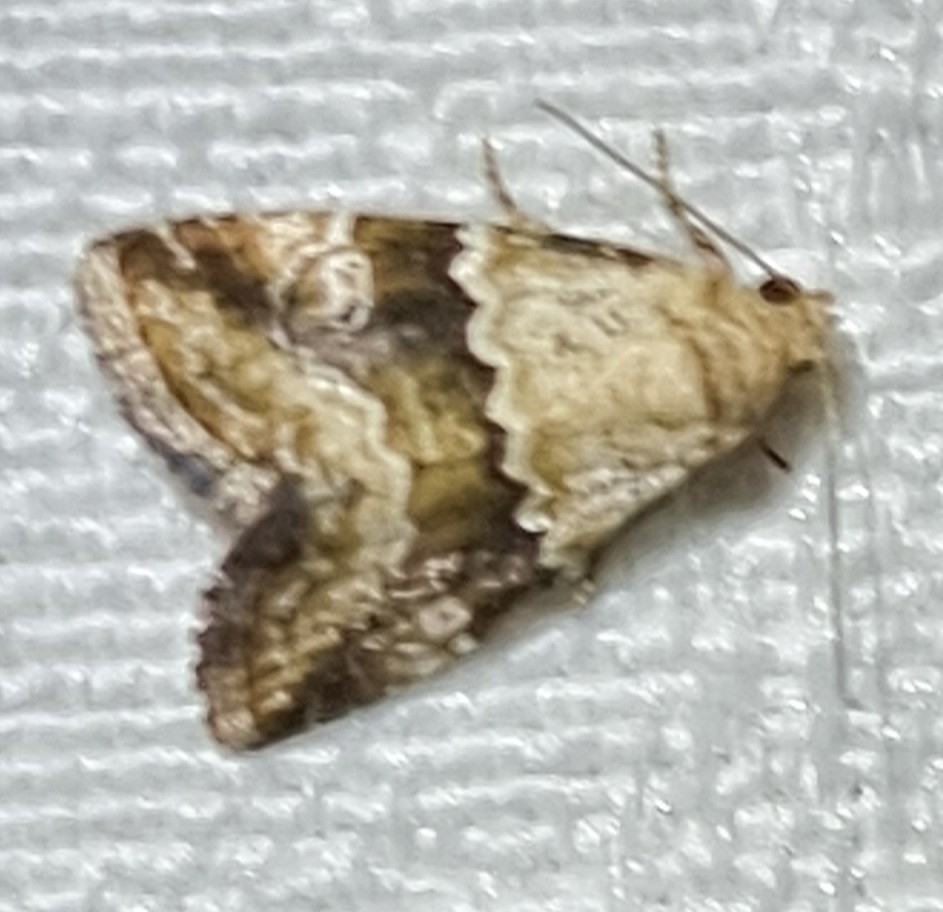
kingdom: Animalia
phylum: Arthropoda
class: Insecta
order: Lepidoptera
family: Noctuidae
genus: Maliattha
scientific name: Maliattha amorpha
